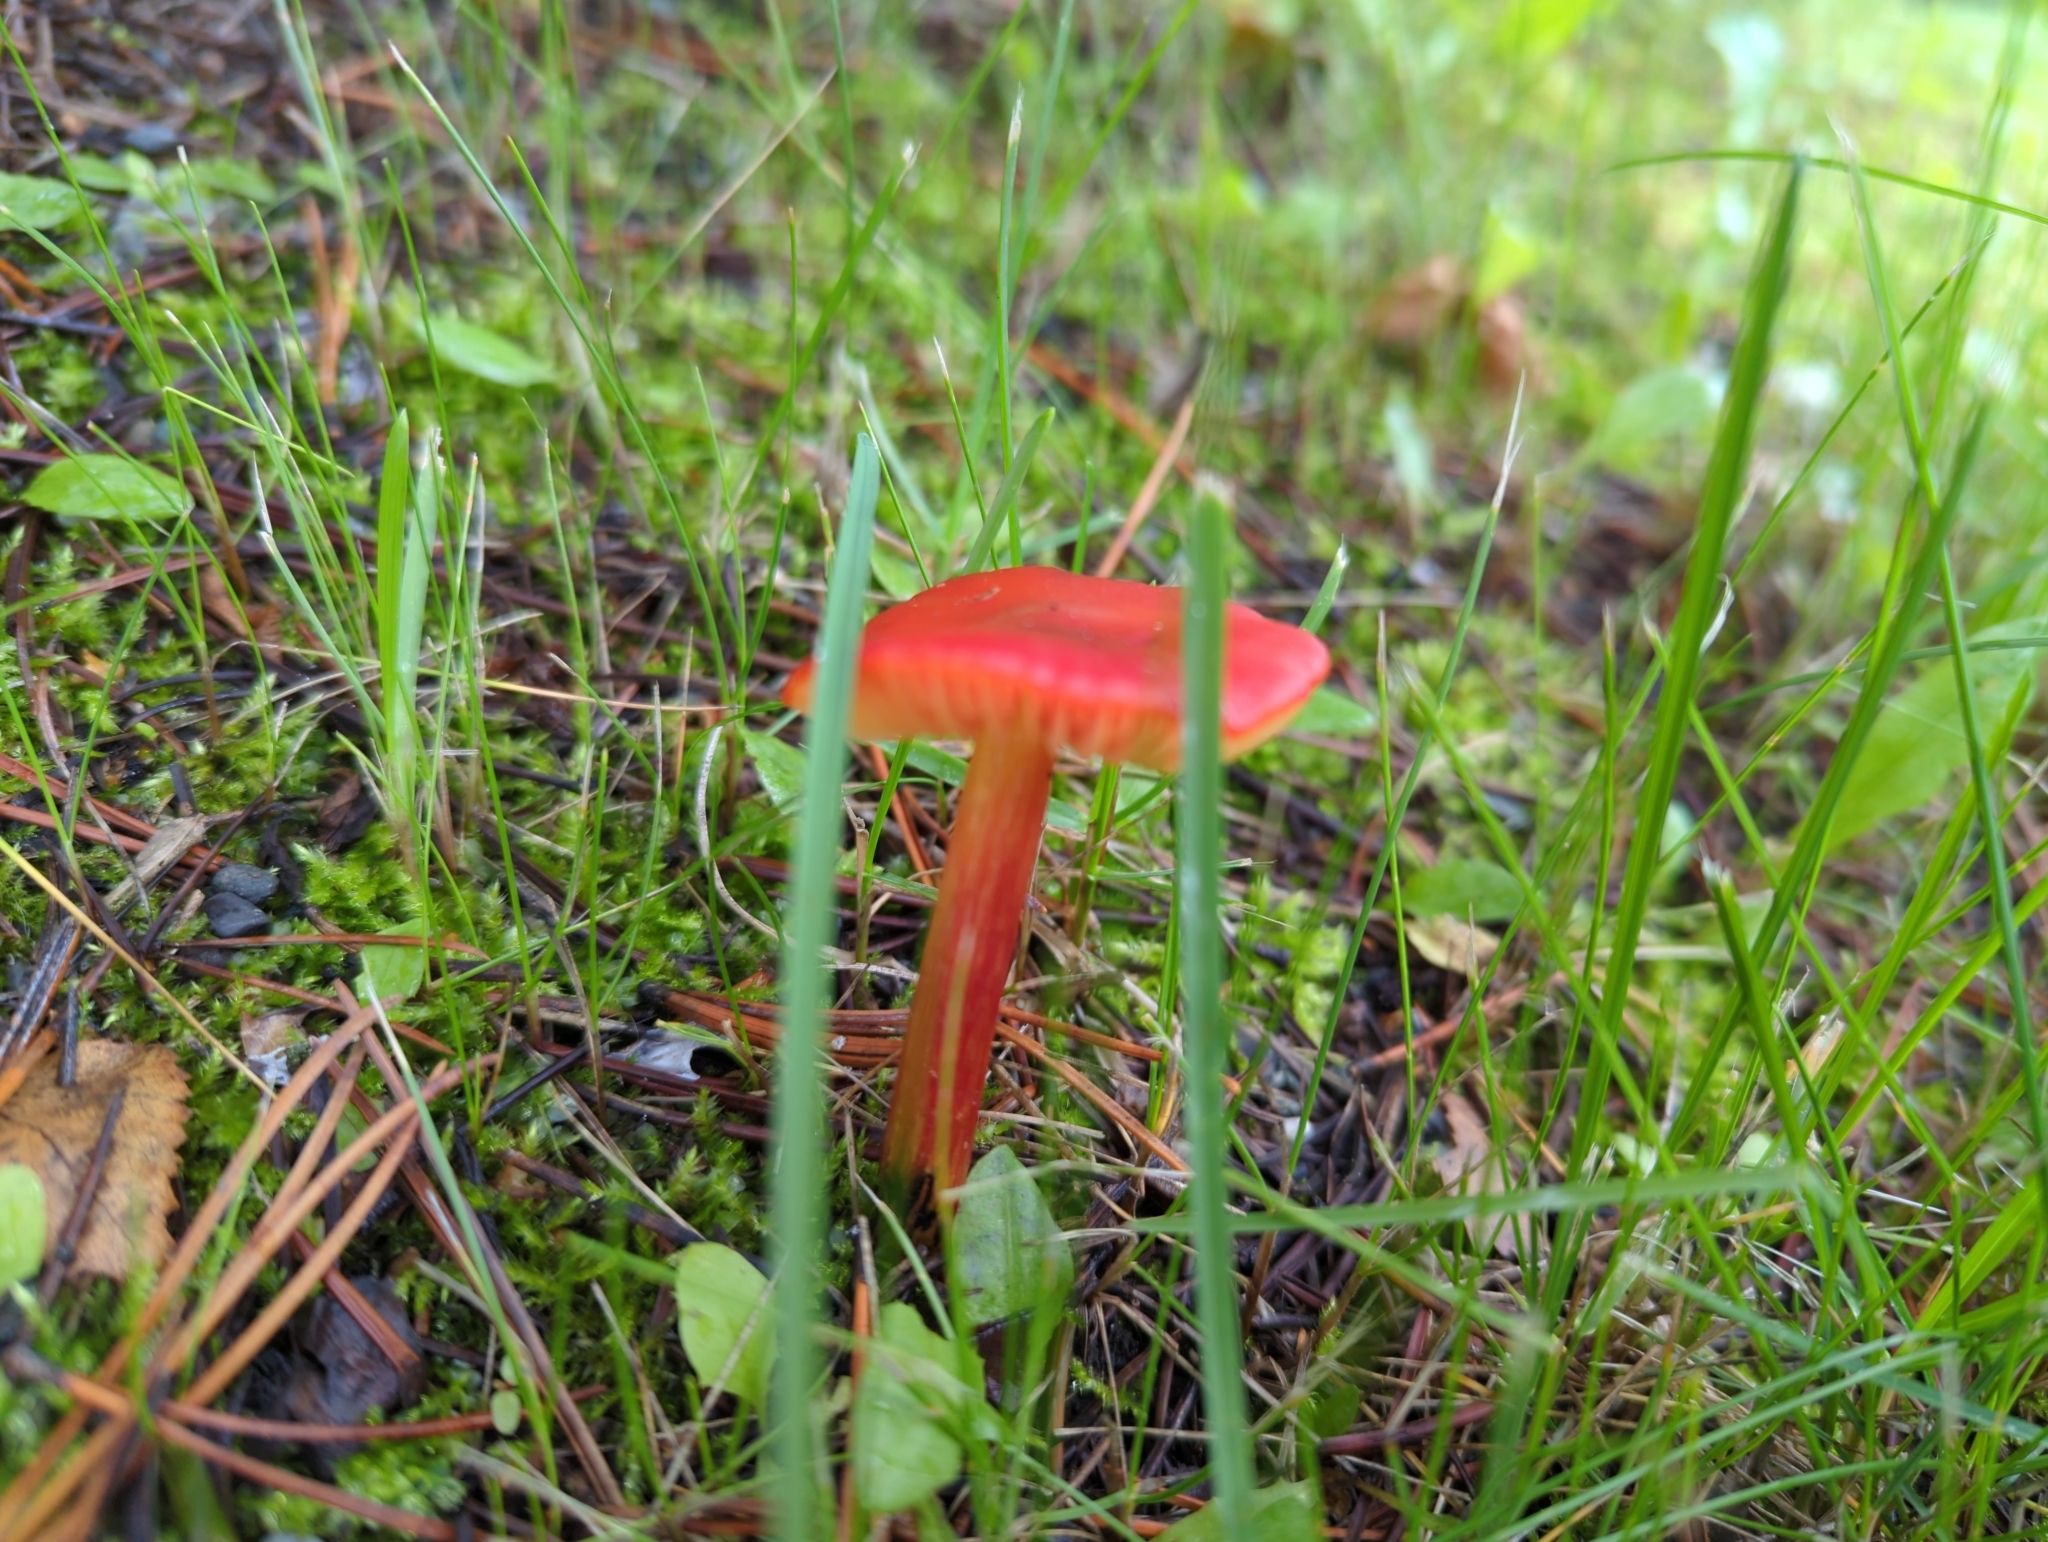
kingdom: Fungi
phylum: Basidiomycota
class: Agaricomycetes
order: Agaricales
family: Hygrophoraceae
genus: Hygrocybe
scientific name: Hygrocybe conica
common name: Blackening wax-cap
